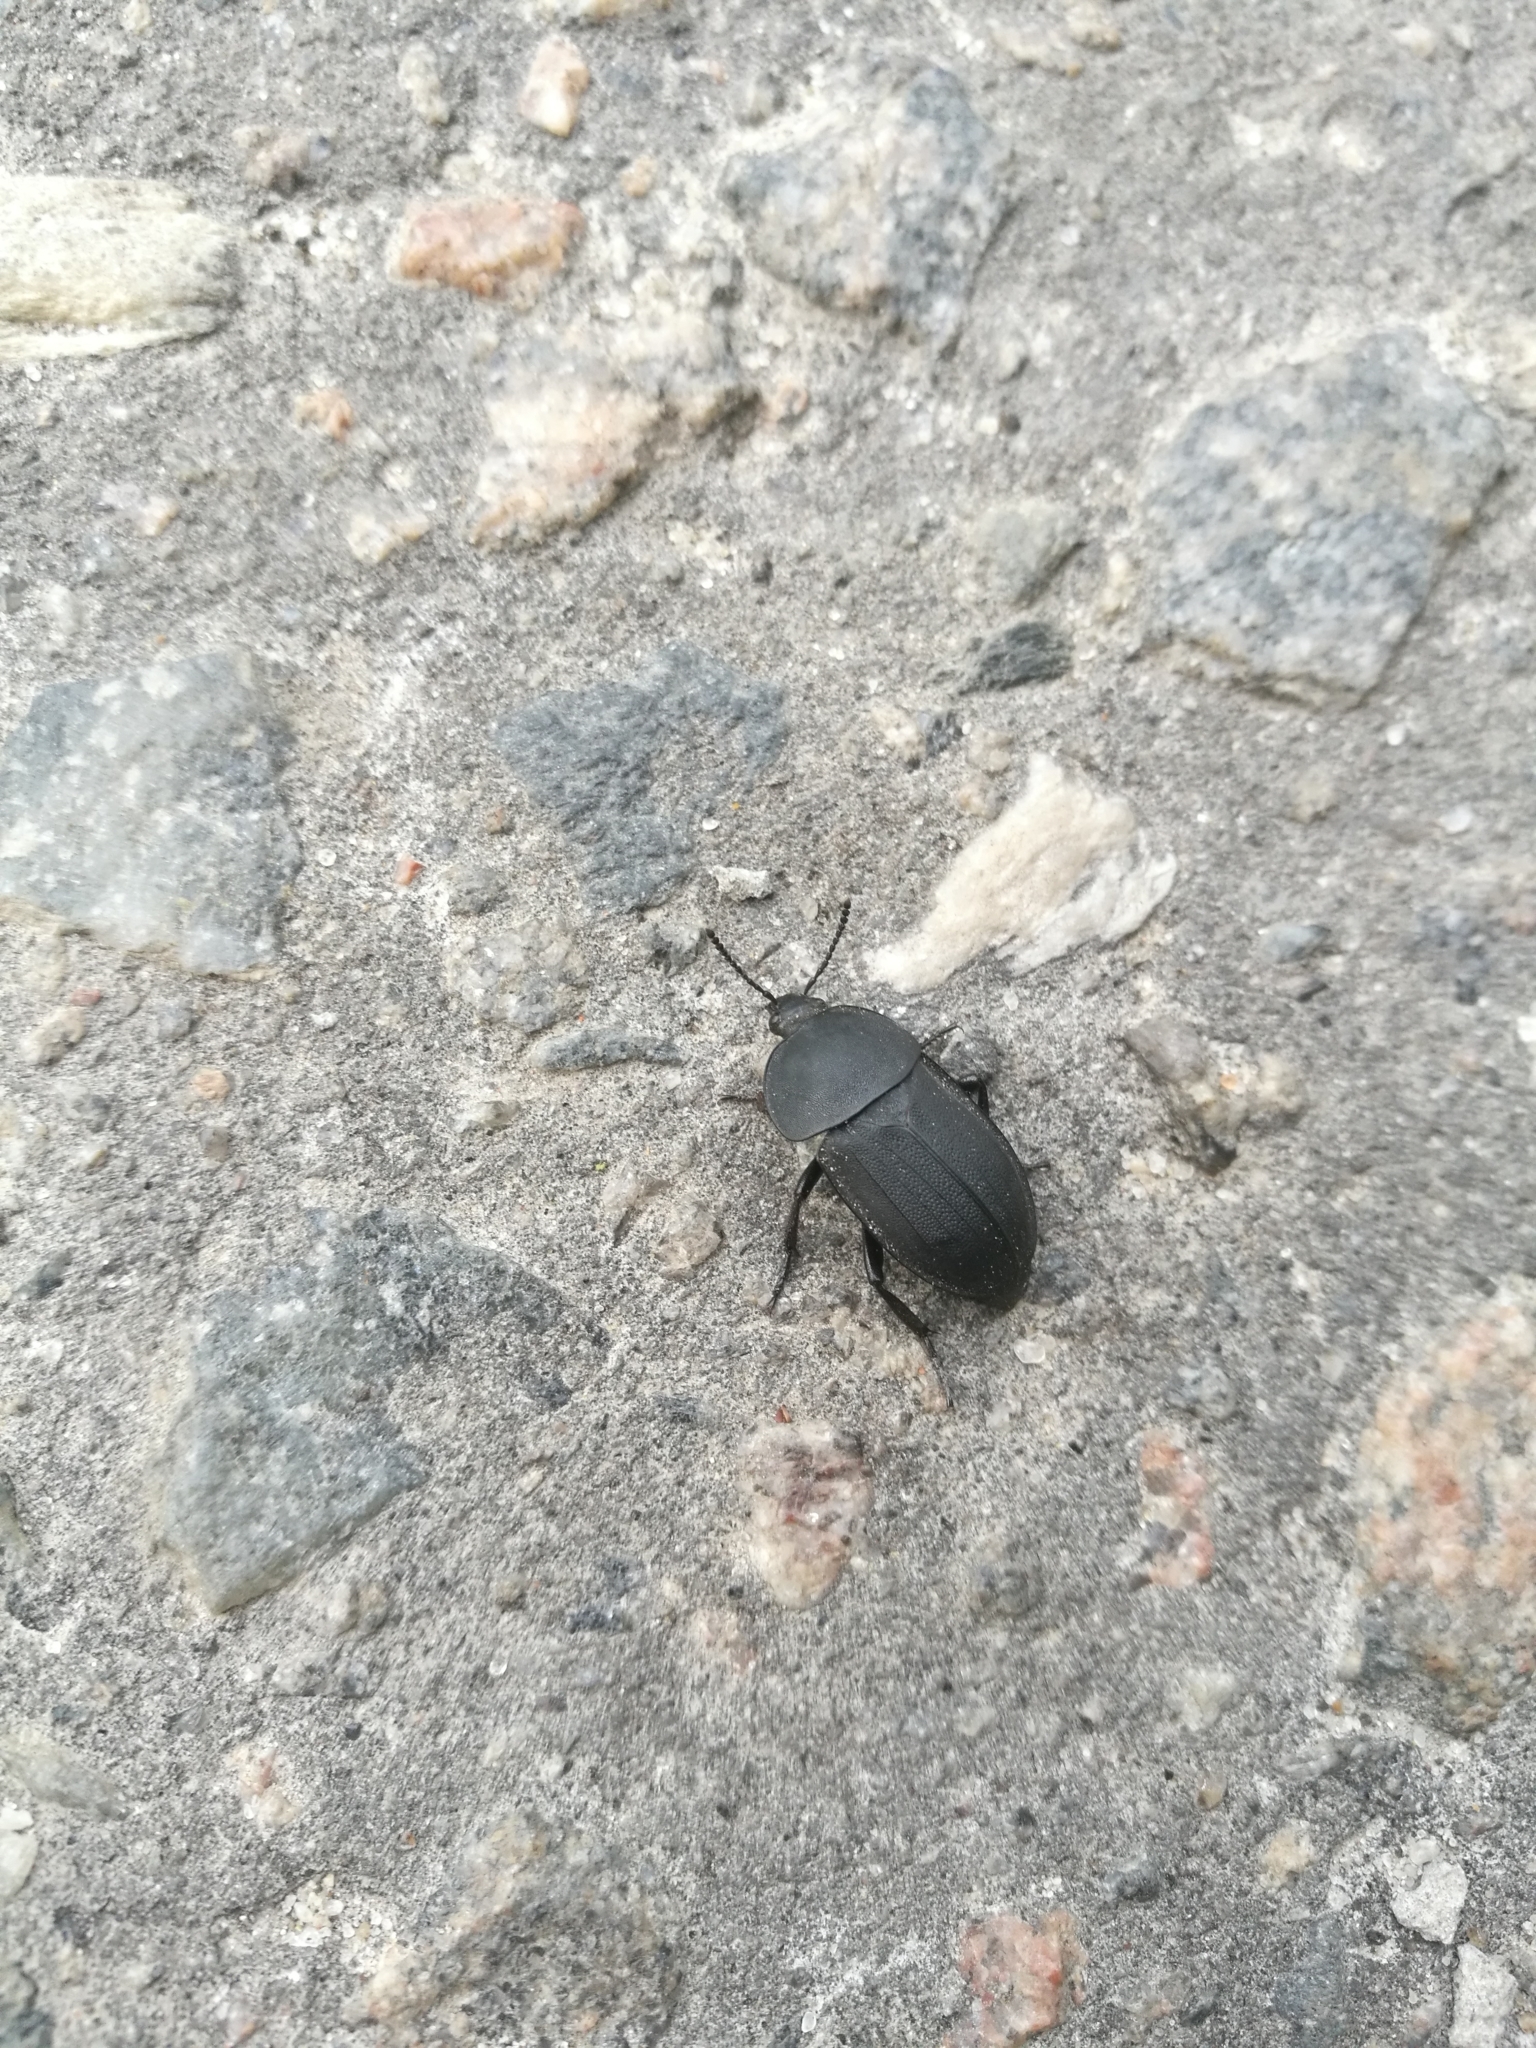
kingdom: Animalia
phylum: Arthropoda
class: Insecta
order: Coleoptera
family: Staphylinidae
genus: Silpha
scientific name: Silpha obscura
